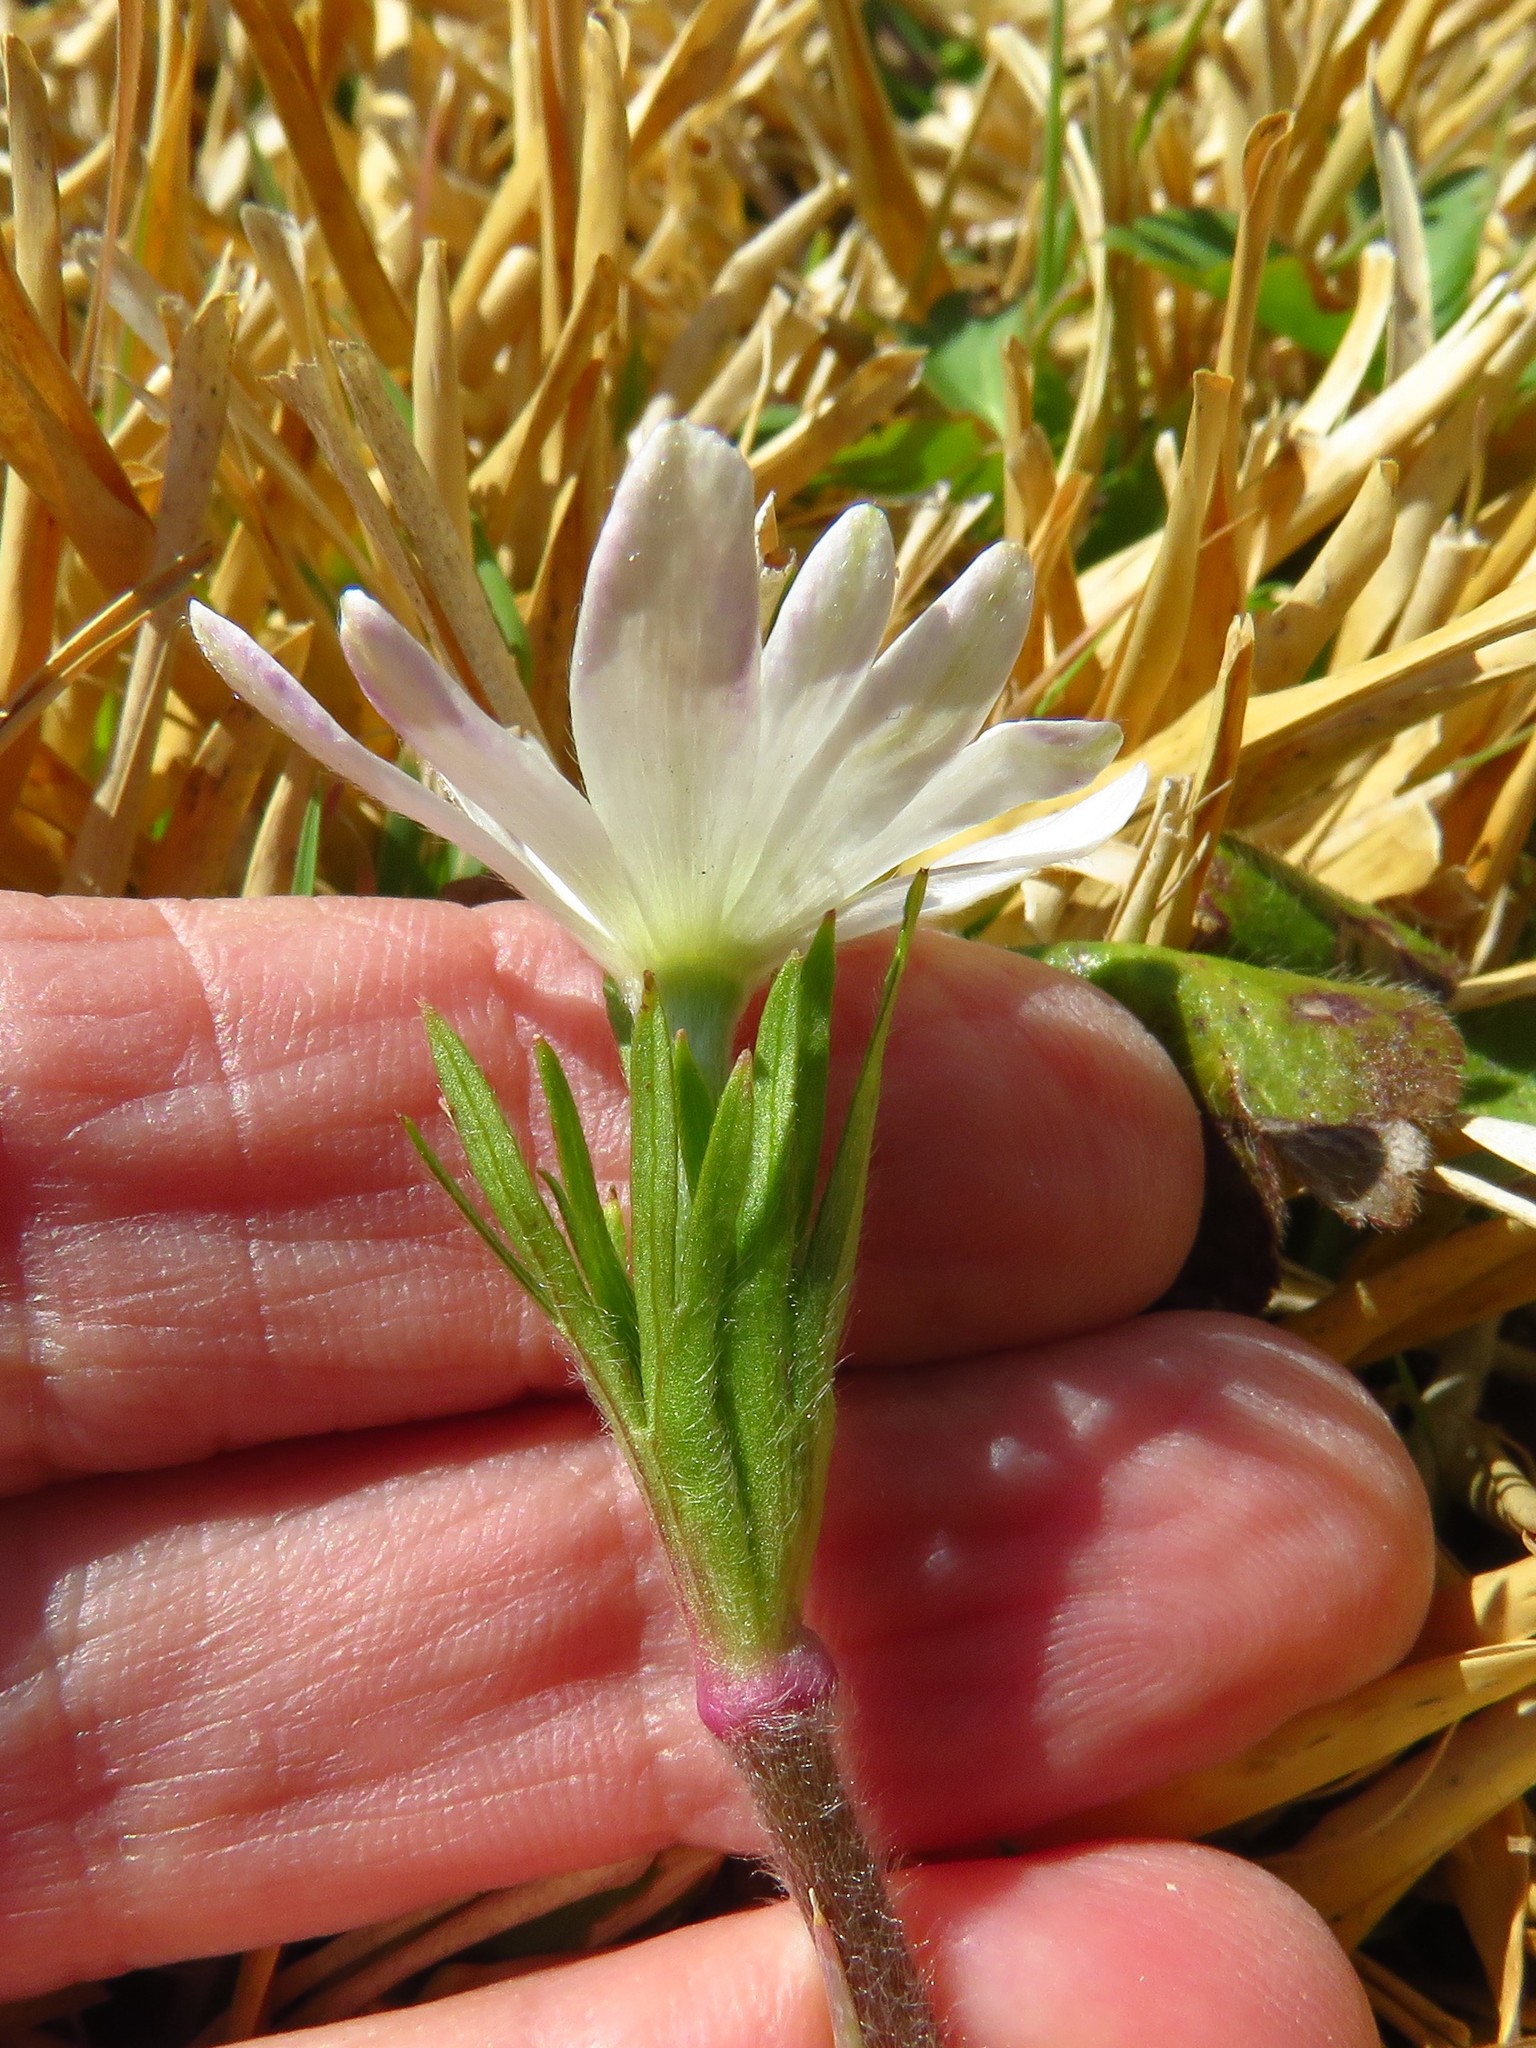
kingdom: Plantae
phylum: Tracheophyta
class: Magnoliopsida
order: Ranunculales
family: Ranunculaceae
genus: Anemone
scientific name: Anemone berlandieri
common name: Ten-petal anemone
